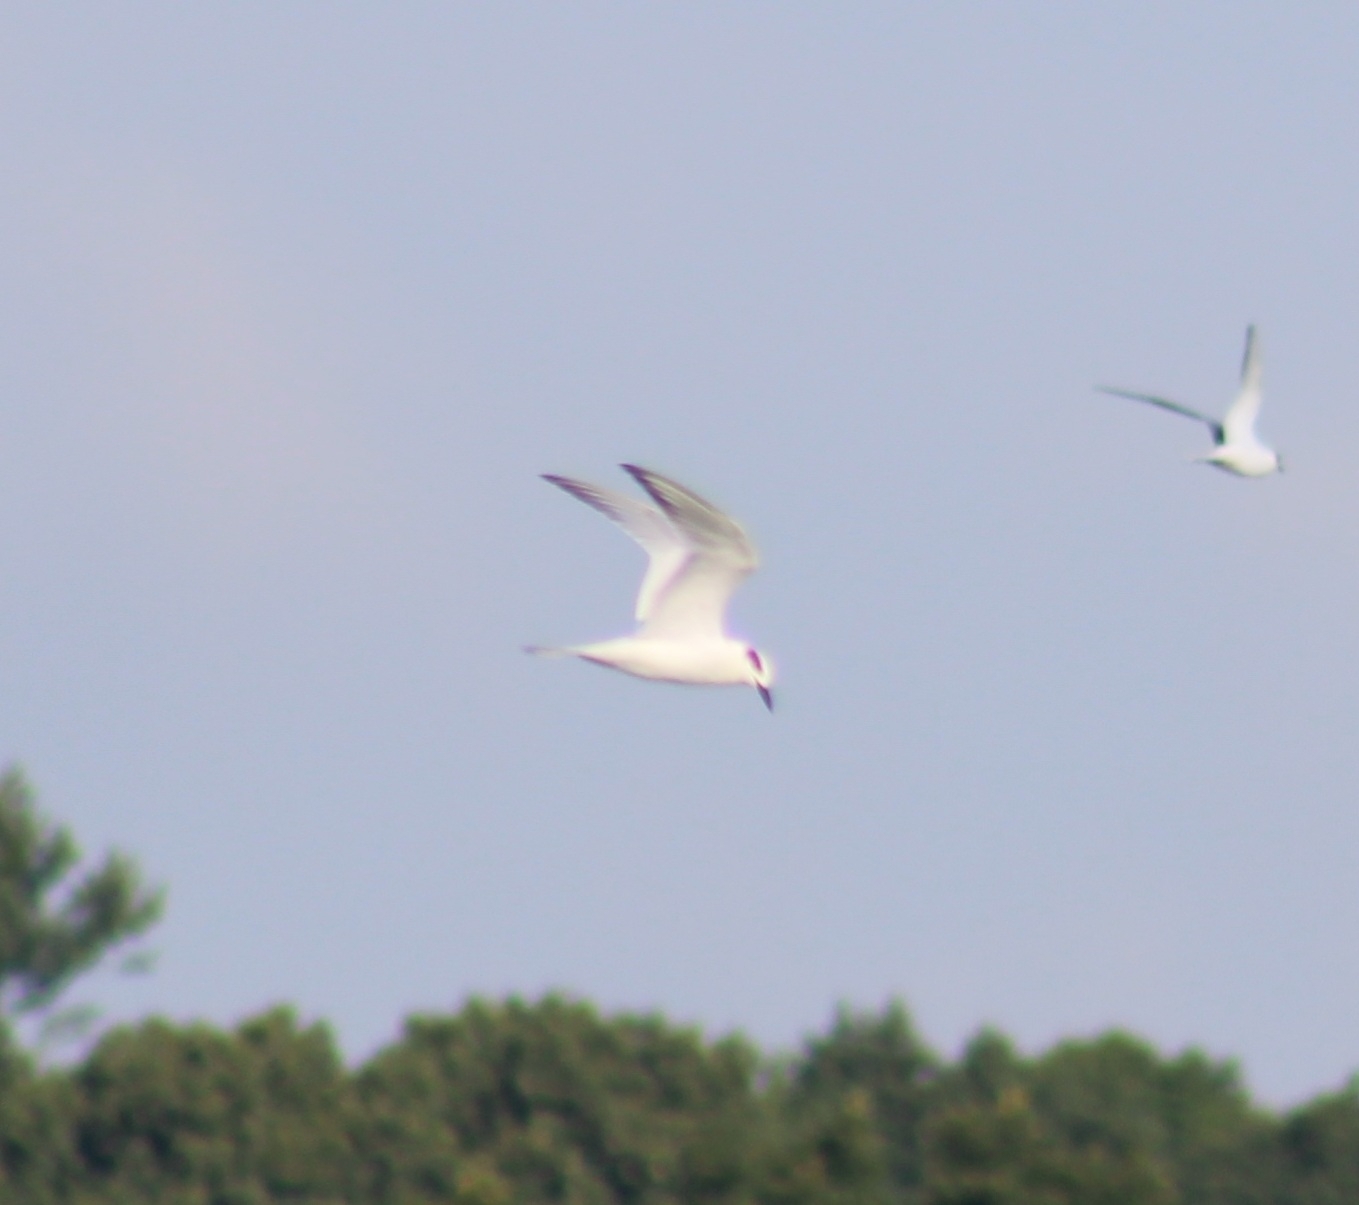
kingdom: Animalia
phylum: Chordata
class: Aves
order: Charadriiformes
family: Laridae
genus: Sterna
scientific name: Sterna forsteri
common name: Forster's tern
